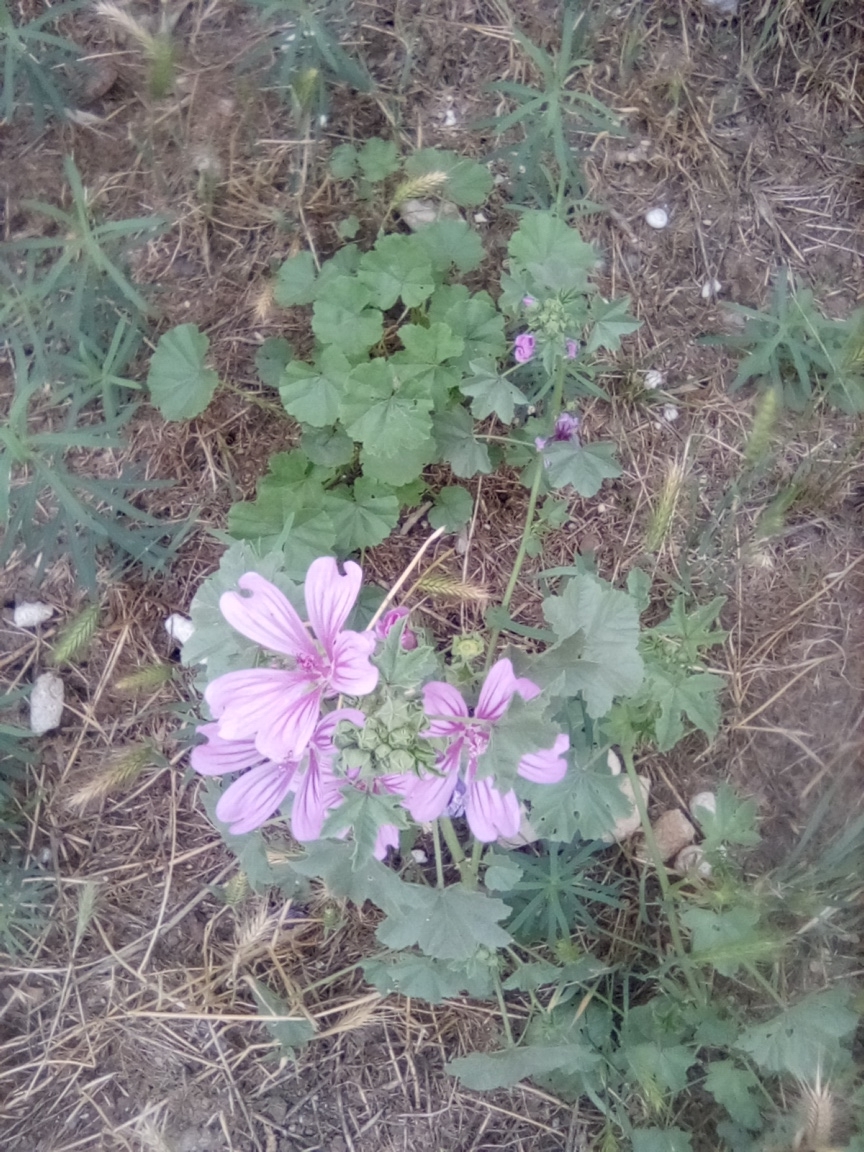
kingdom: Plantae
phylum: Tracheophyta
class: Magnoliopsida
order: Malvales
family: Malvaceae
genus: Malva
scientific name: Malva sylvestris
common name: Common mallow
